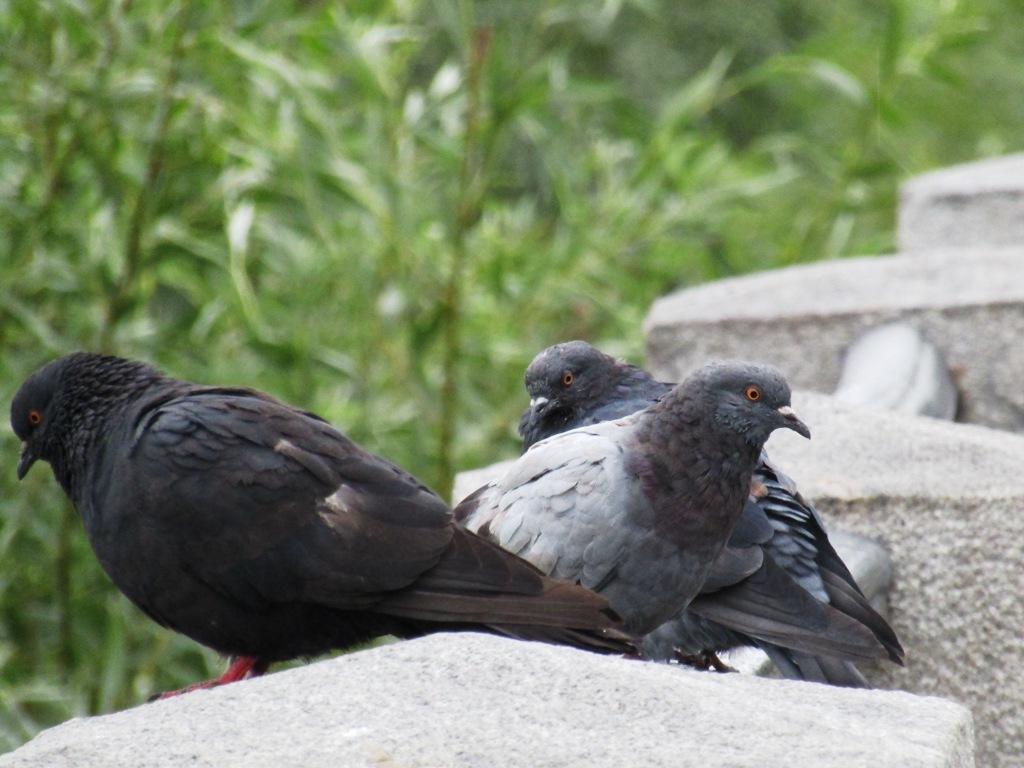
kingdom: Animalia
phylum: Chordata
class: Aves
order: Columbiformes
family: Columbidae
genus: Columba
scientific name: Columba livia
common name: Rock pigeon
